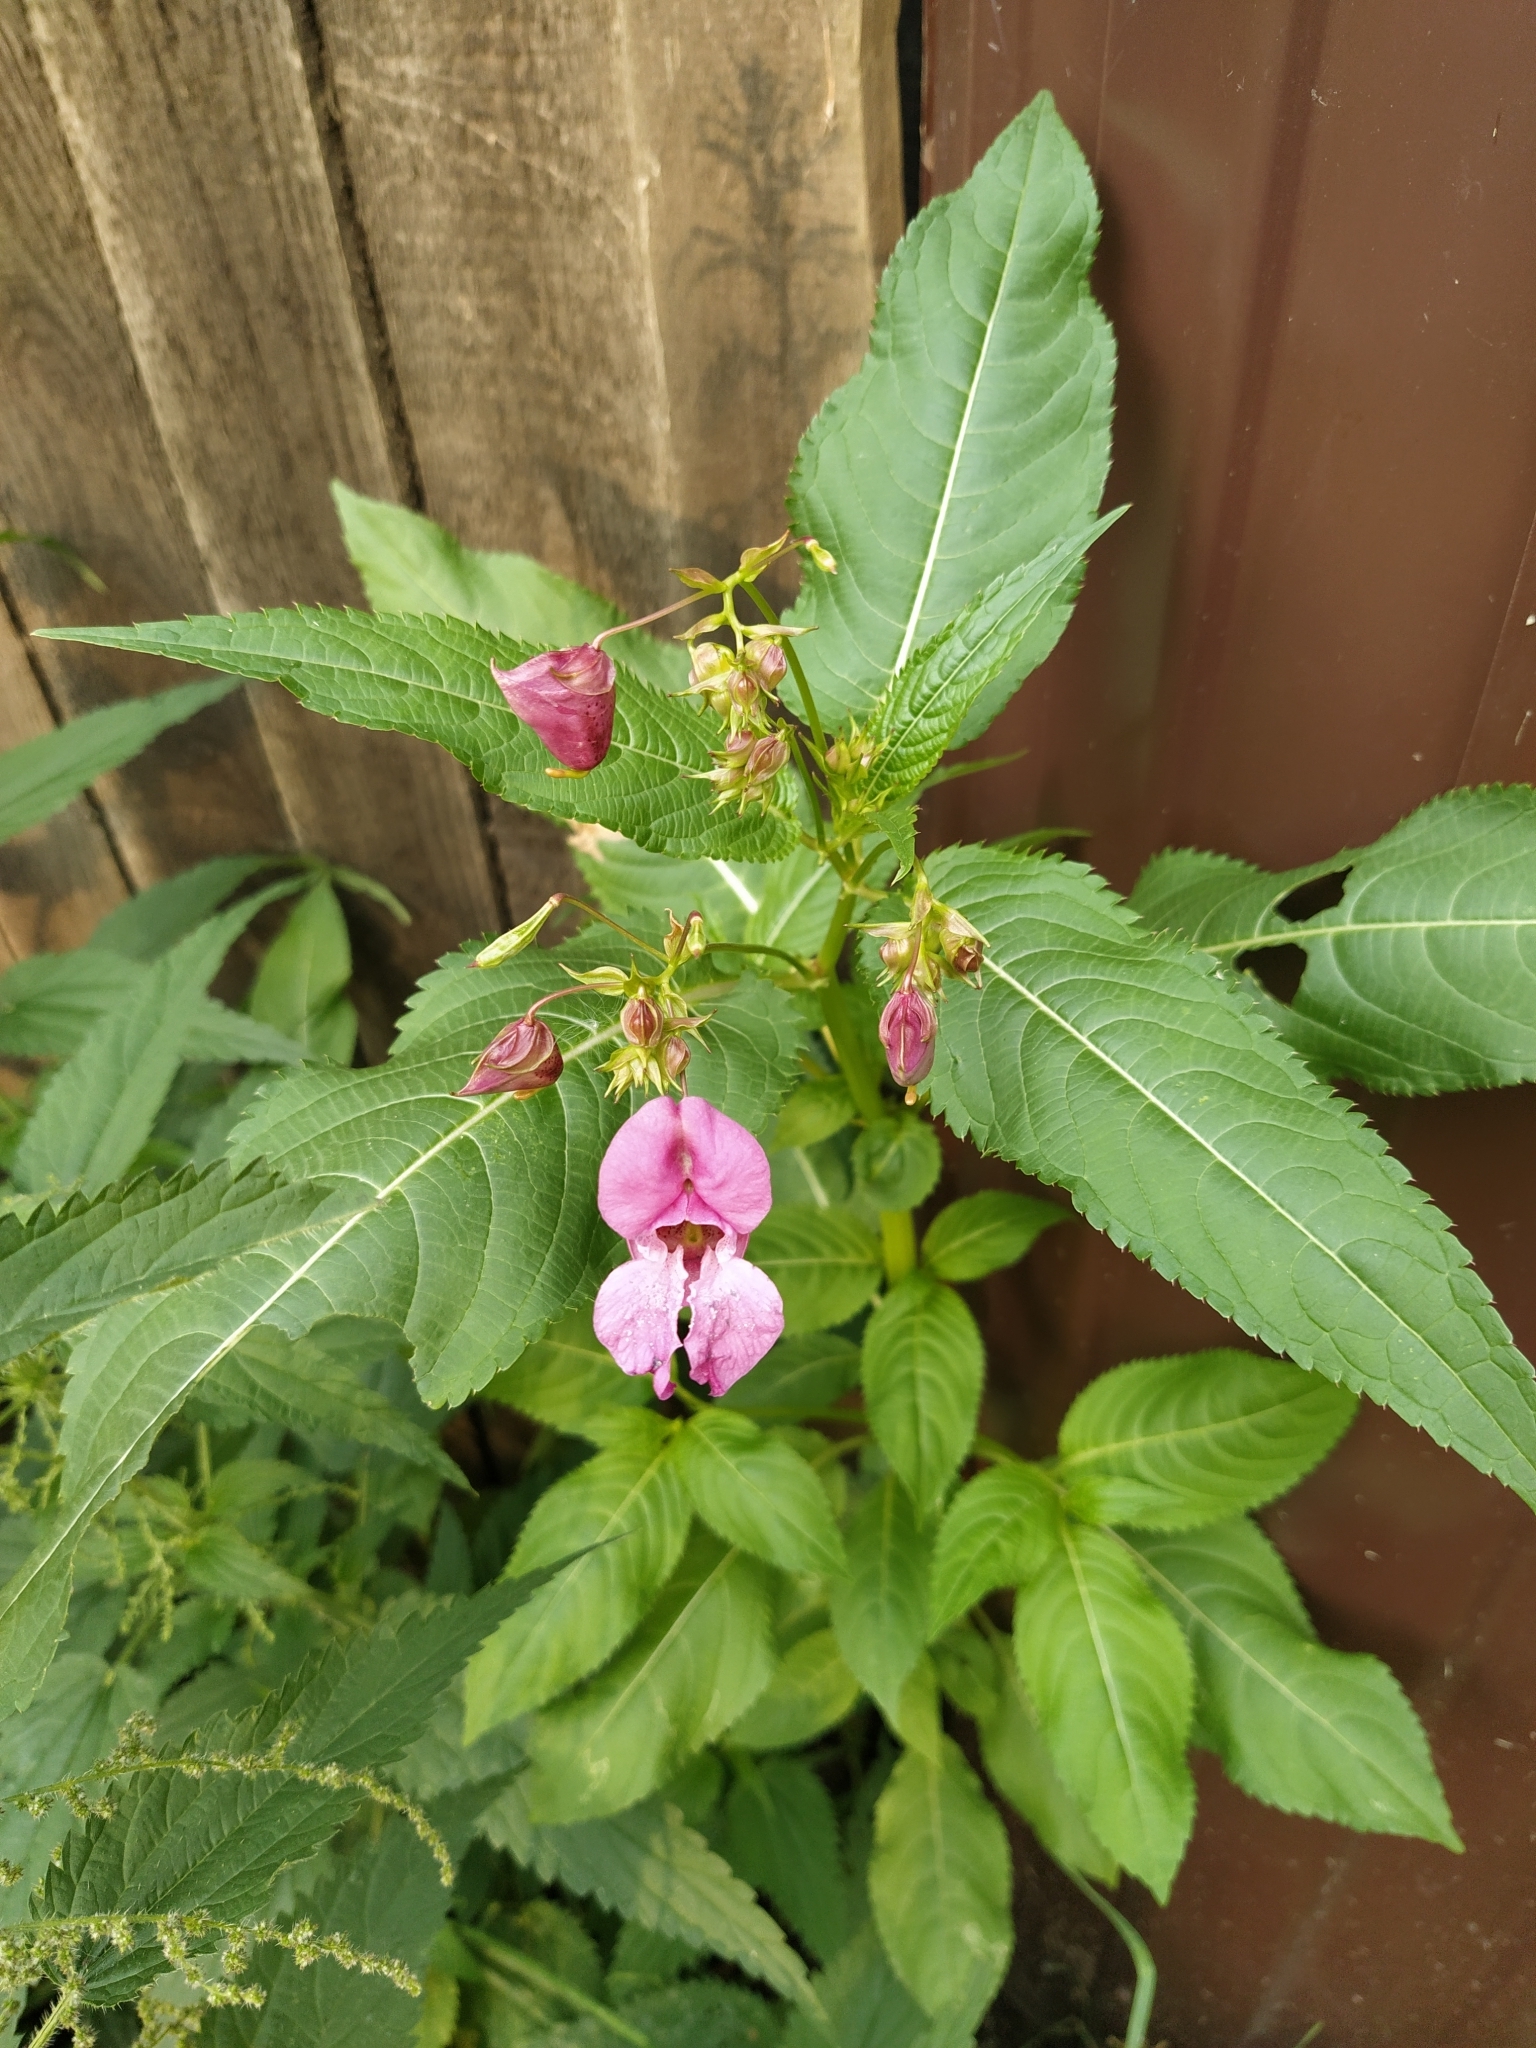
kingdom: Plantae
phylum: Tracheophyta
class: Magnoliopsida
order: Ericales
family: Balsaminaceae
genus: Impatiens
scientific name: Impatiens glandulifera
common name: Himalayan balsam
